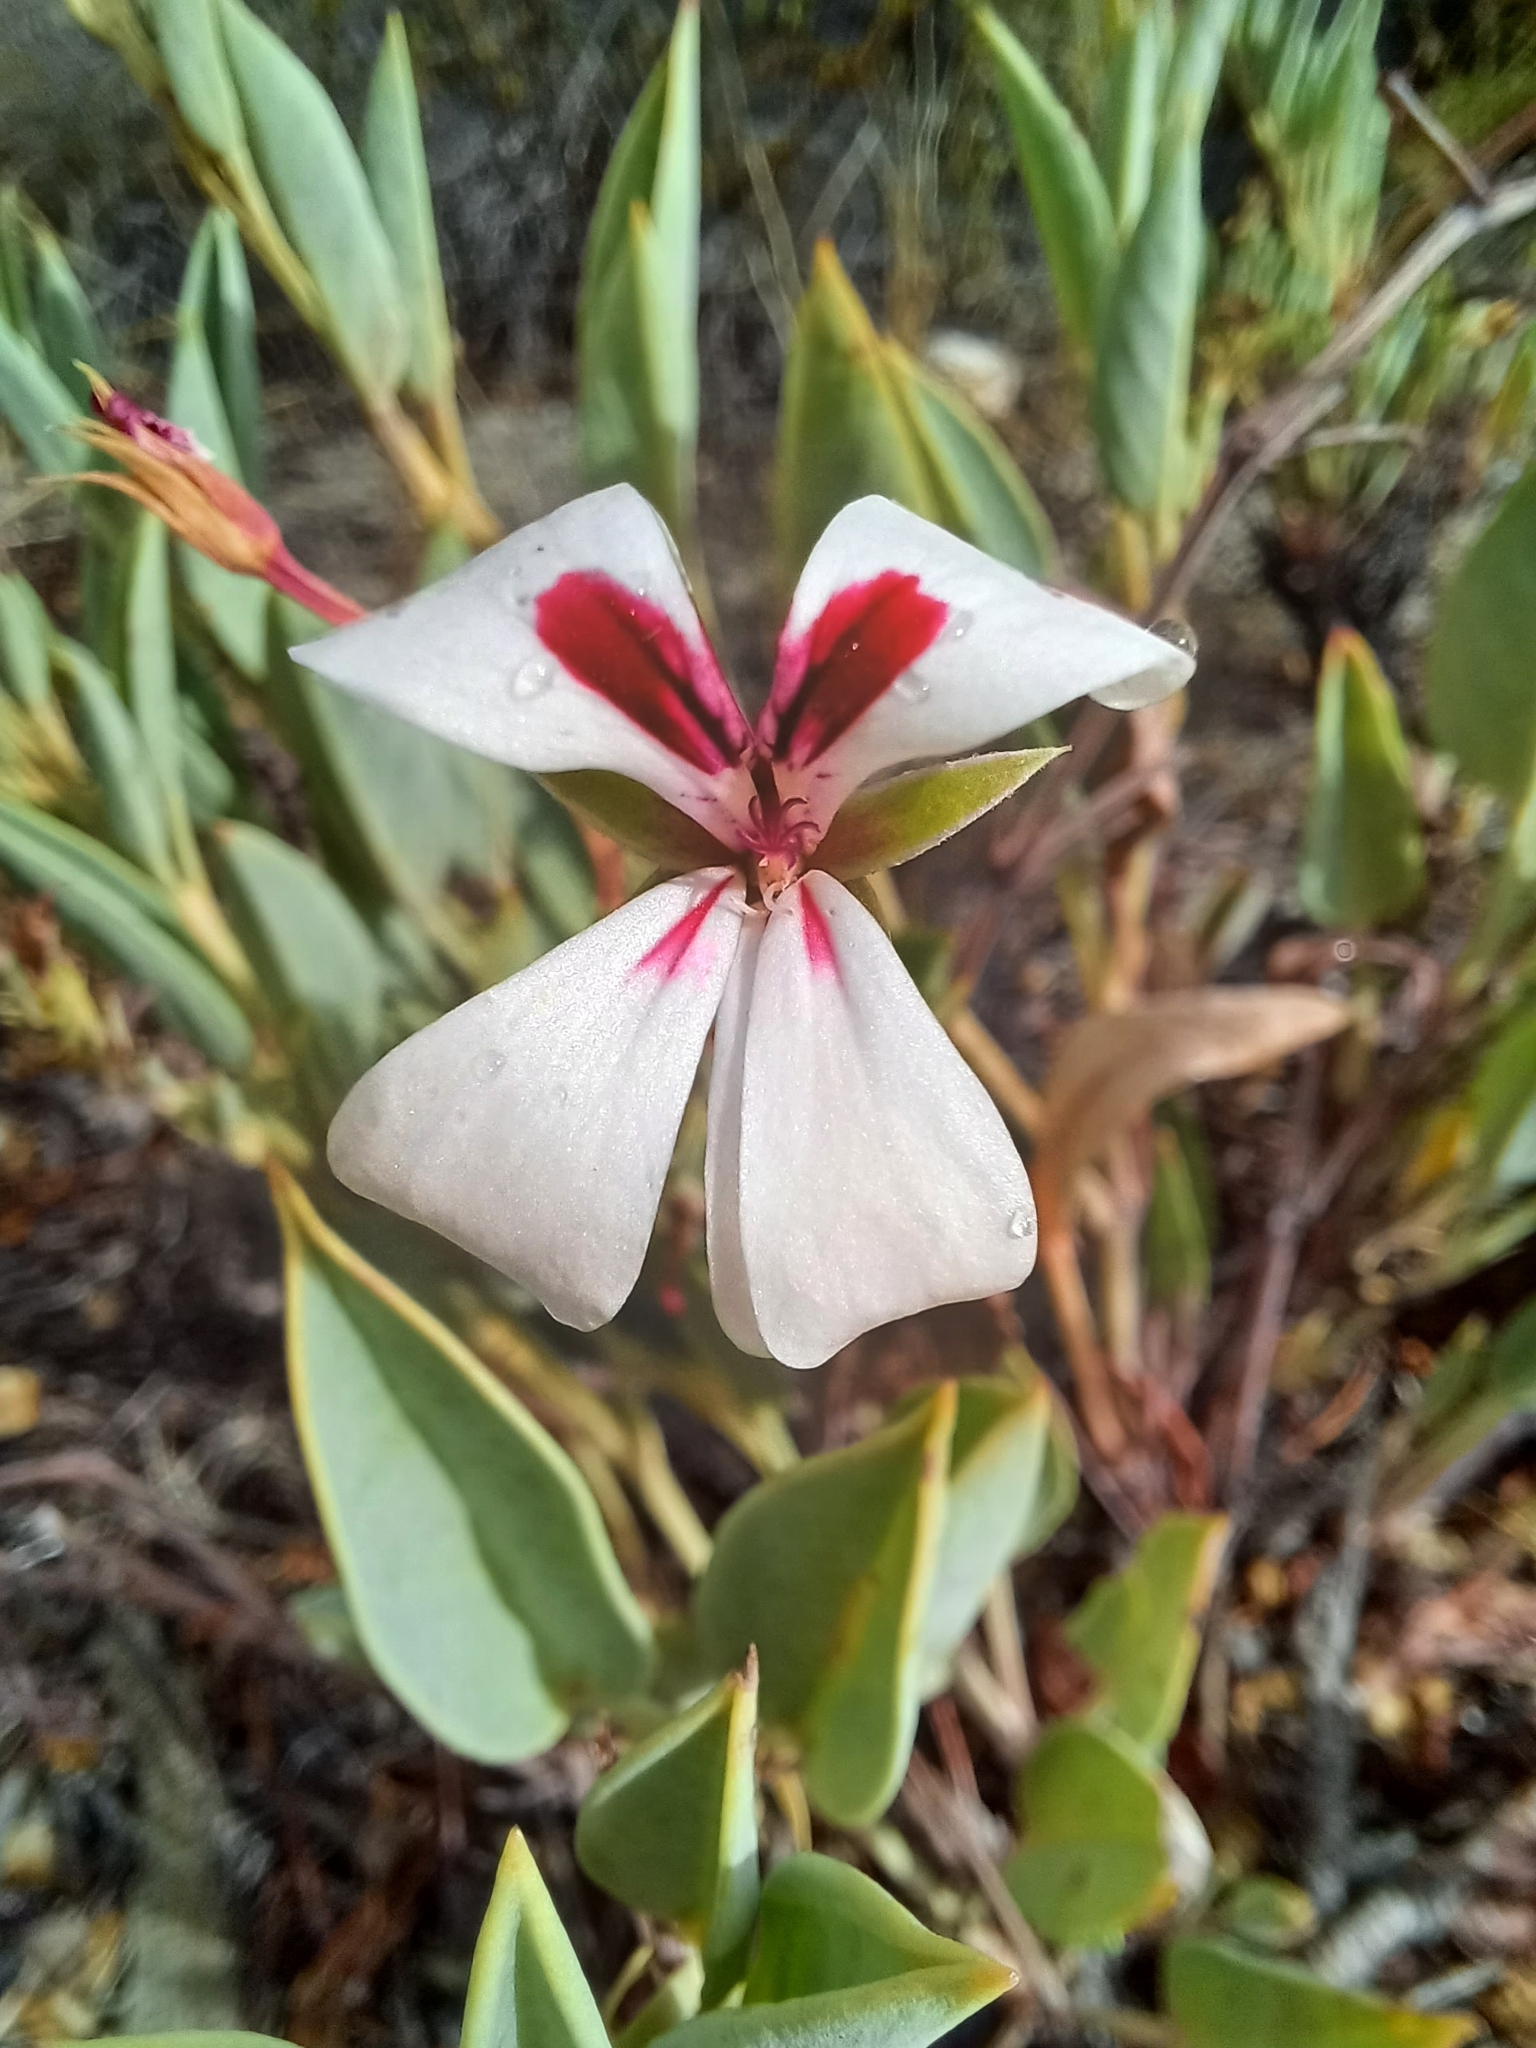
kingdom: Plantae
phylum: Tracheophyta
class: Magnoliopsida
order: Geraniales
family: Geraniaceae
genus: Pelargonium
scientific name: Pelargonium lanceolatum
